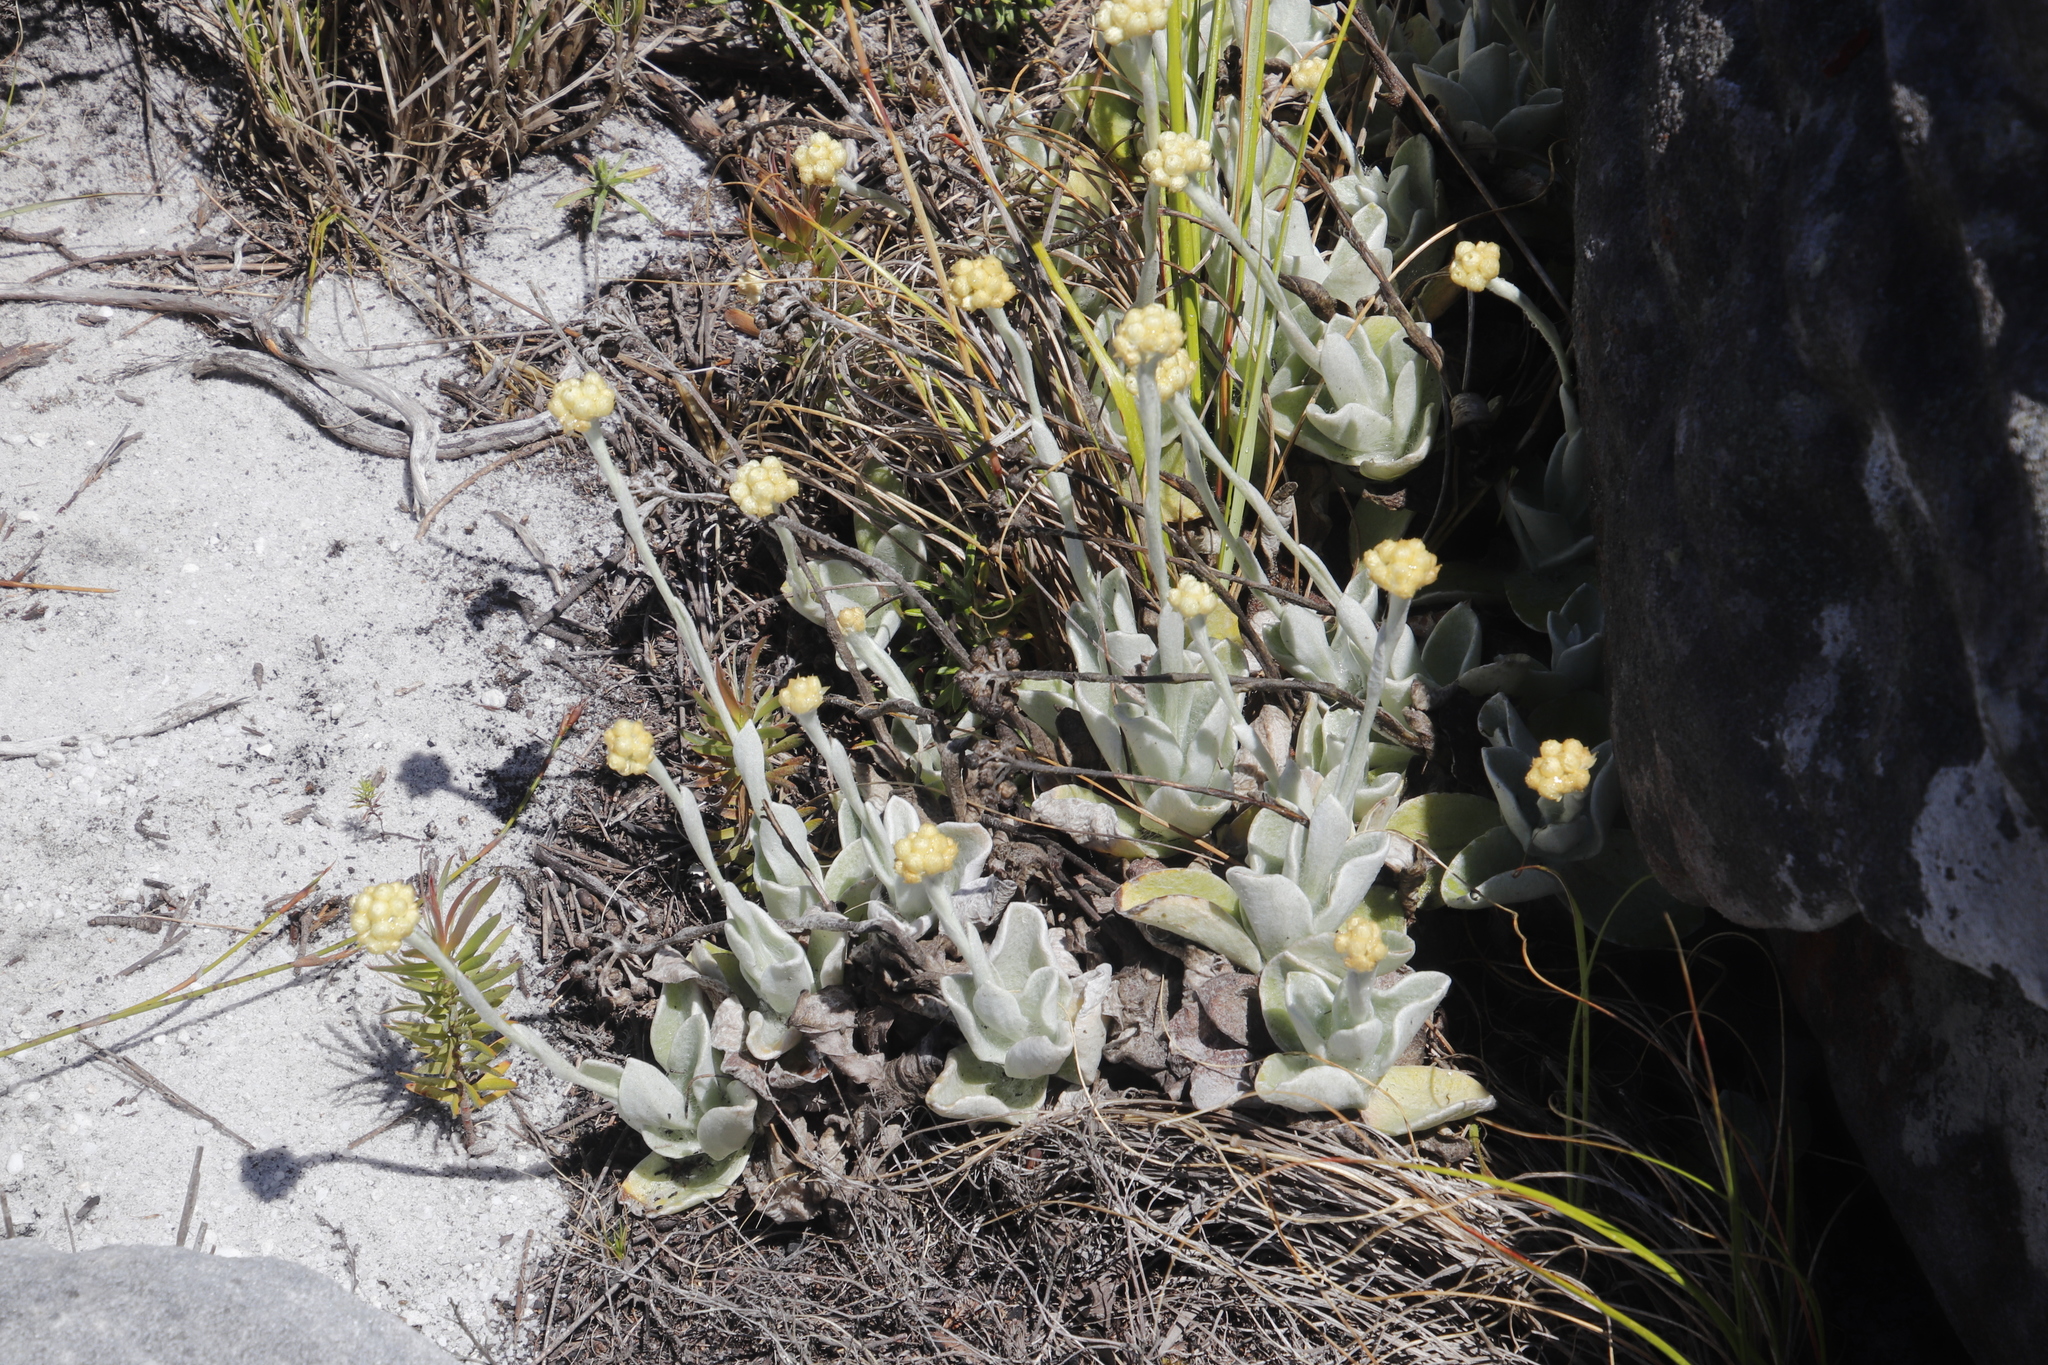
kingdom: Plantae
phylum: Tracheophyta
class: Magnoliopsida
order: Asterales
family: Asteraceae
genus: Helichrysum
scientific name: Helichrysum grandiflorum
